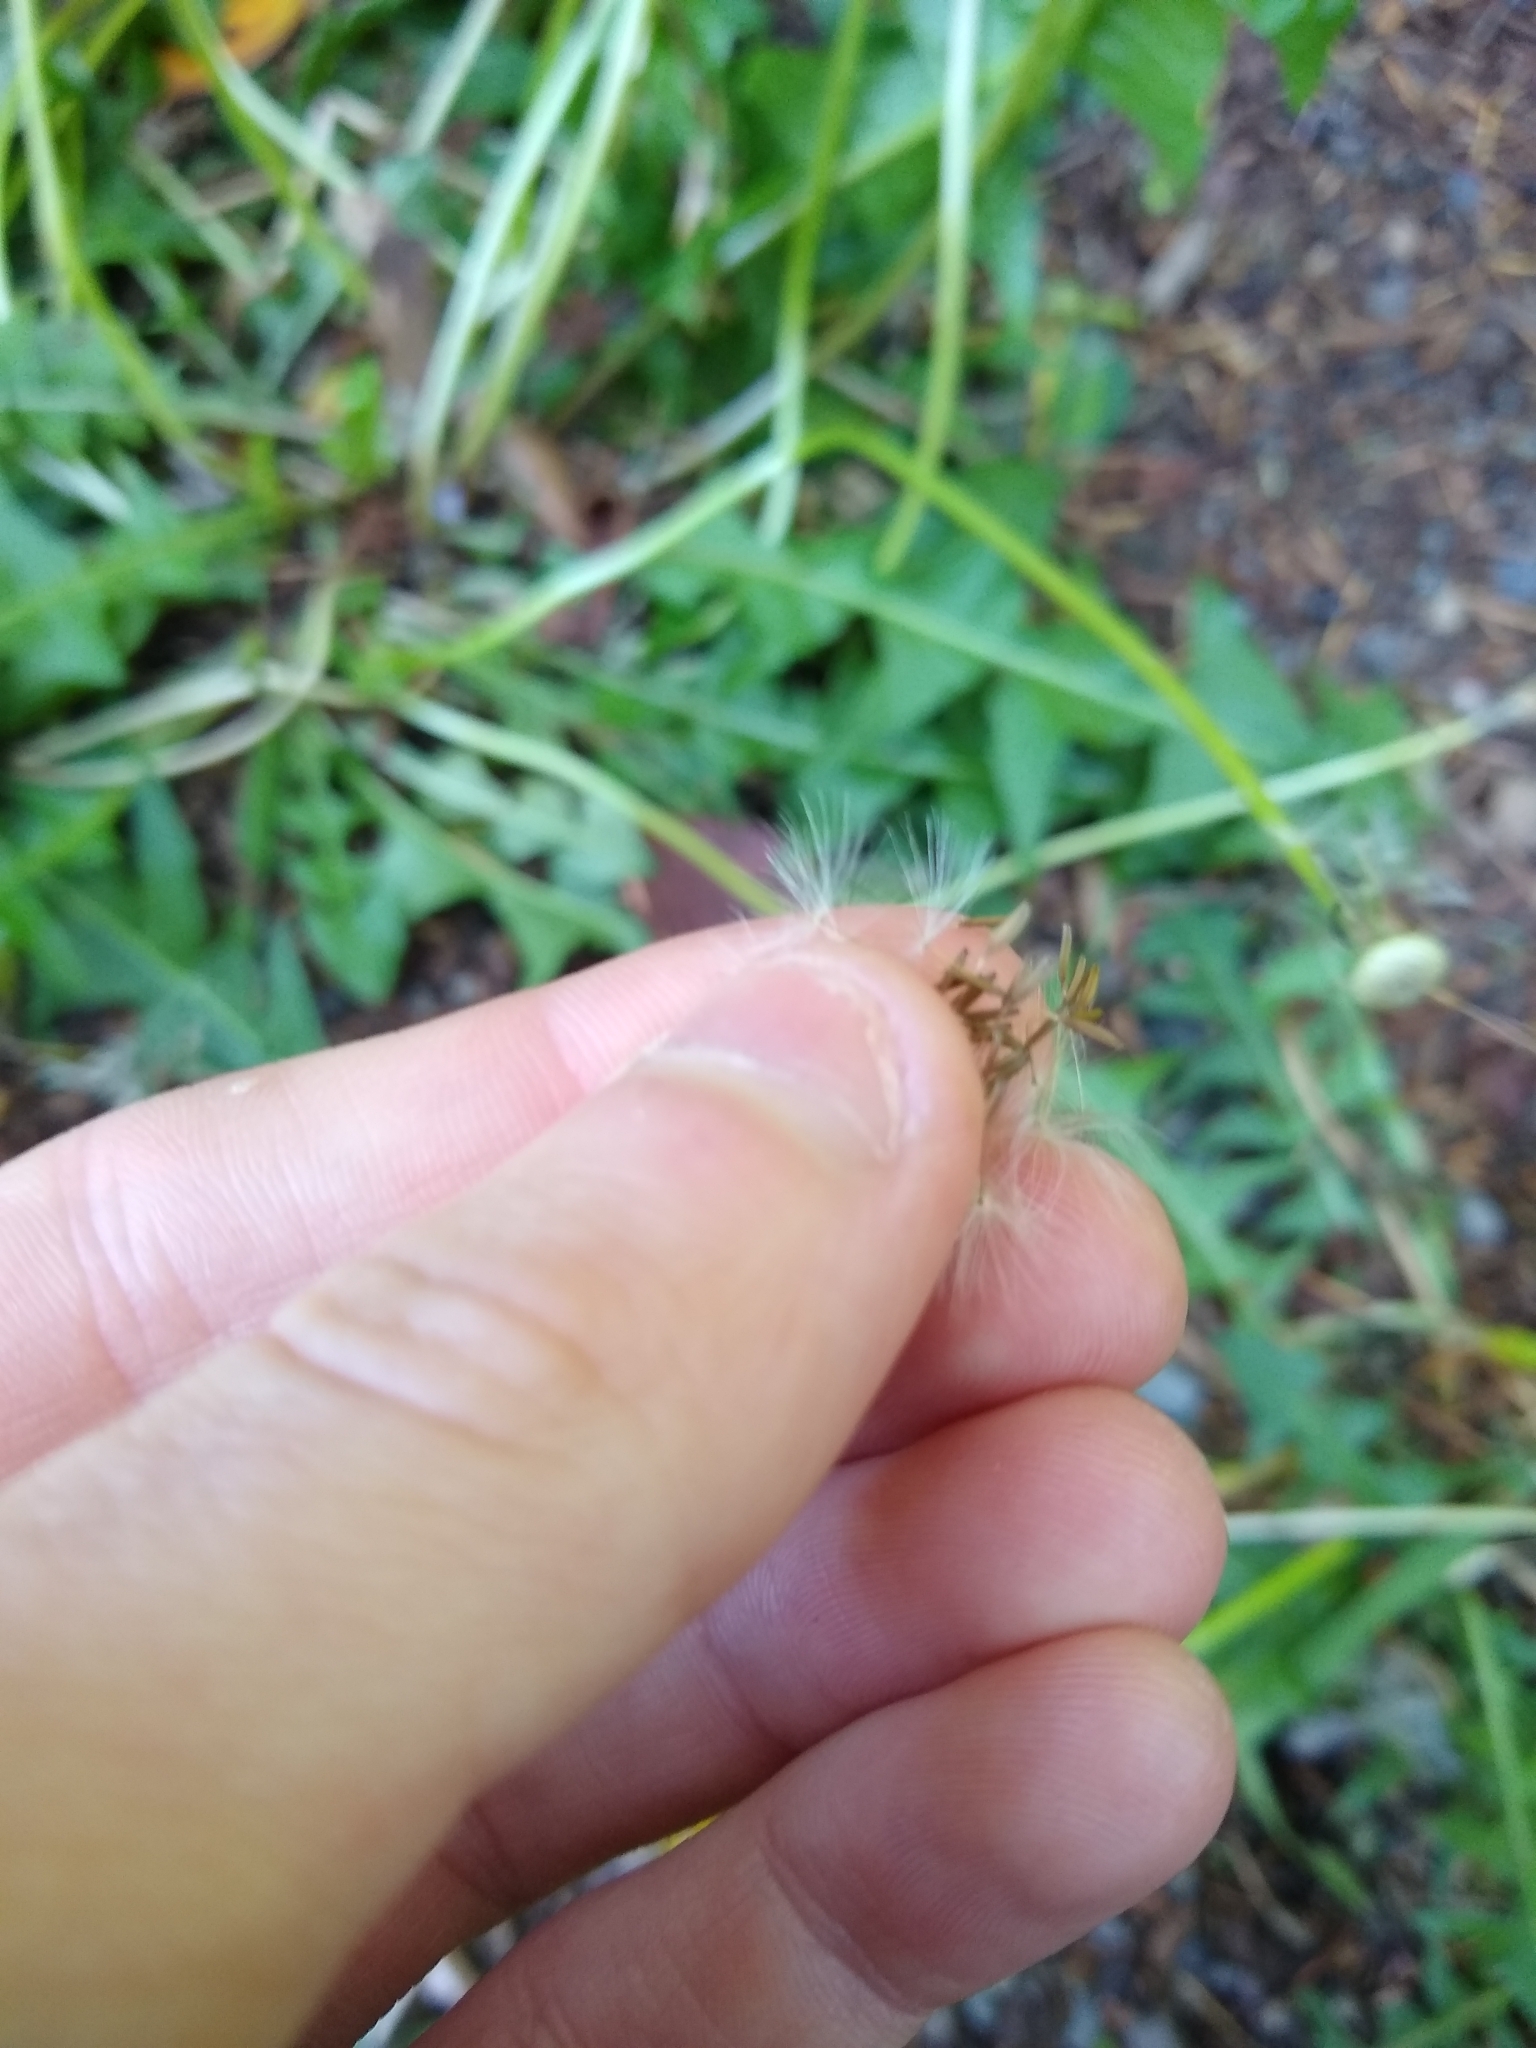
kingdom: Plantae
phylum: Tracheophyta
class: Magnoliopsida
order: Asterales
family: Asteraceae
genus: Taraxacum
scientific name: Taraxacum officinale
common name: Common dandelion
